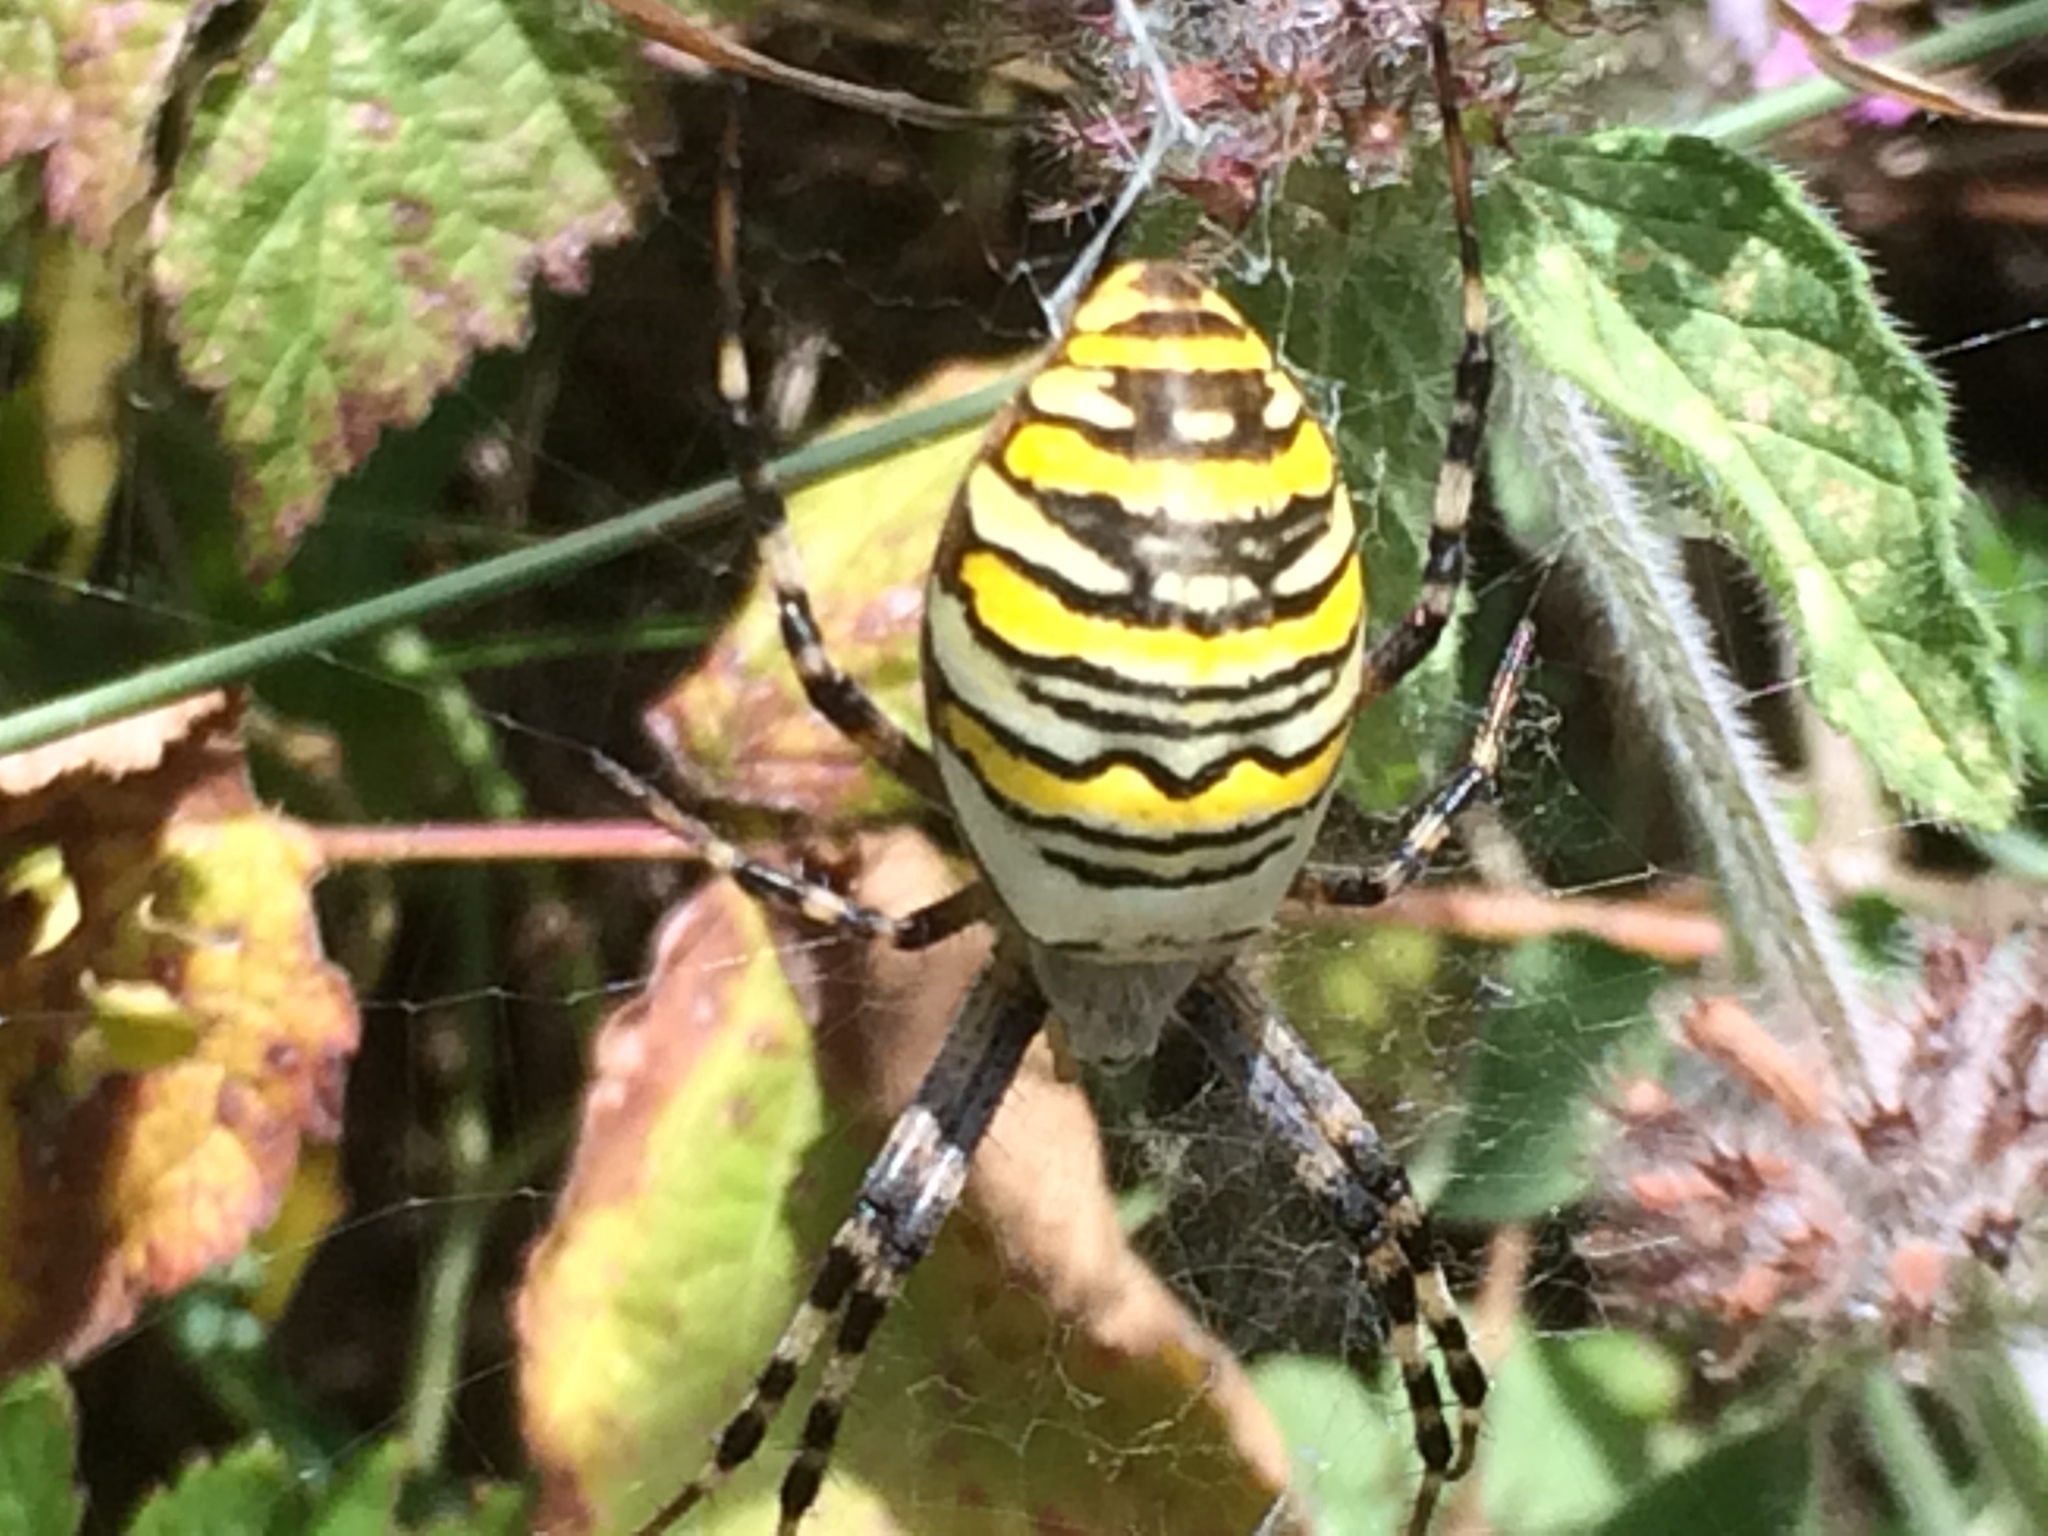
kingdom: Animalia
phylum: Arthropoda
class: Arachnida
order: Araneae
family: Araneidae
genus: Argiope
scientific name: Argiope bruennichi
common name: Wasp spider
